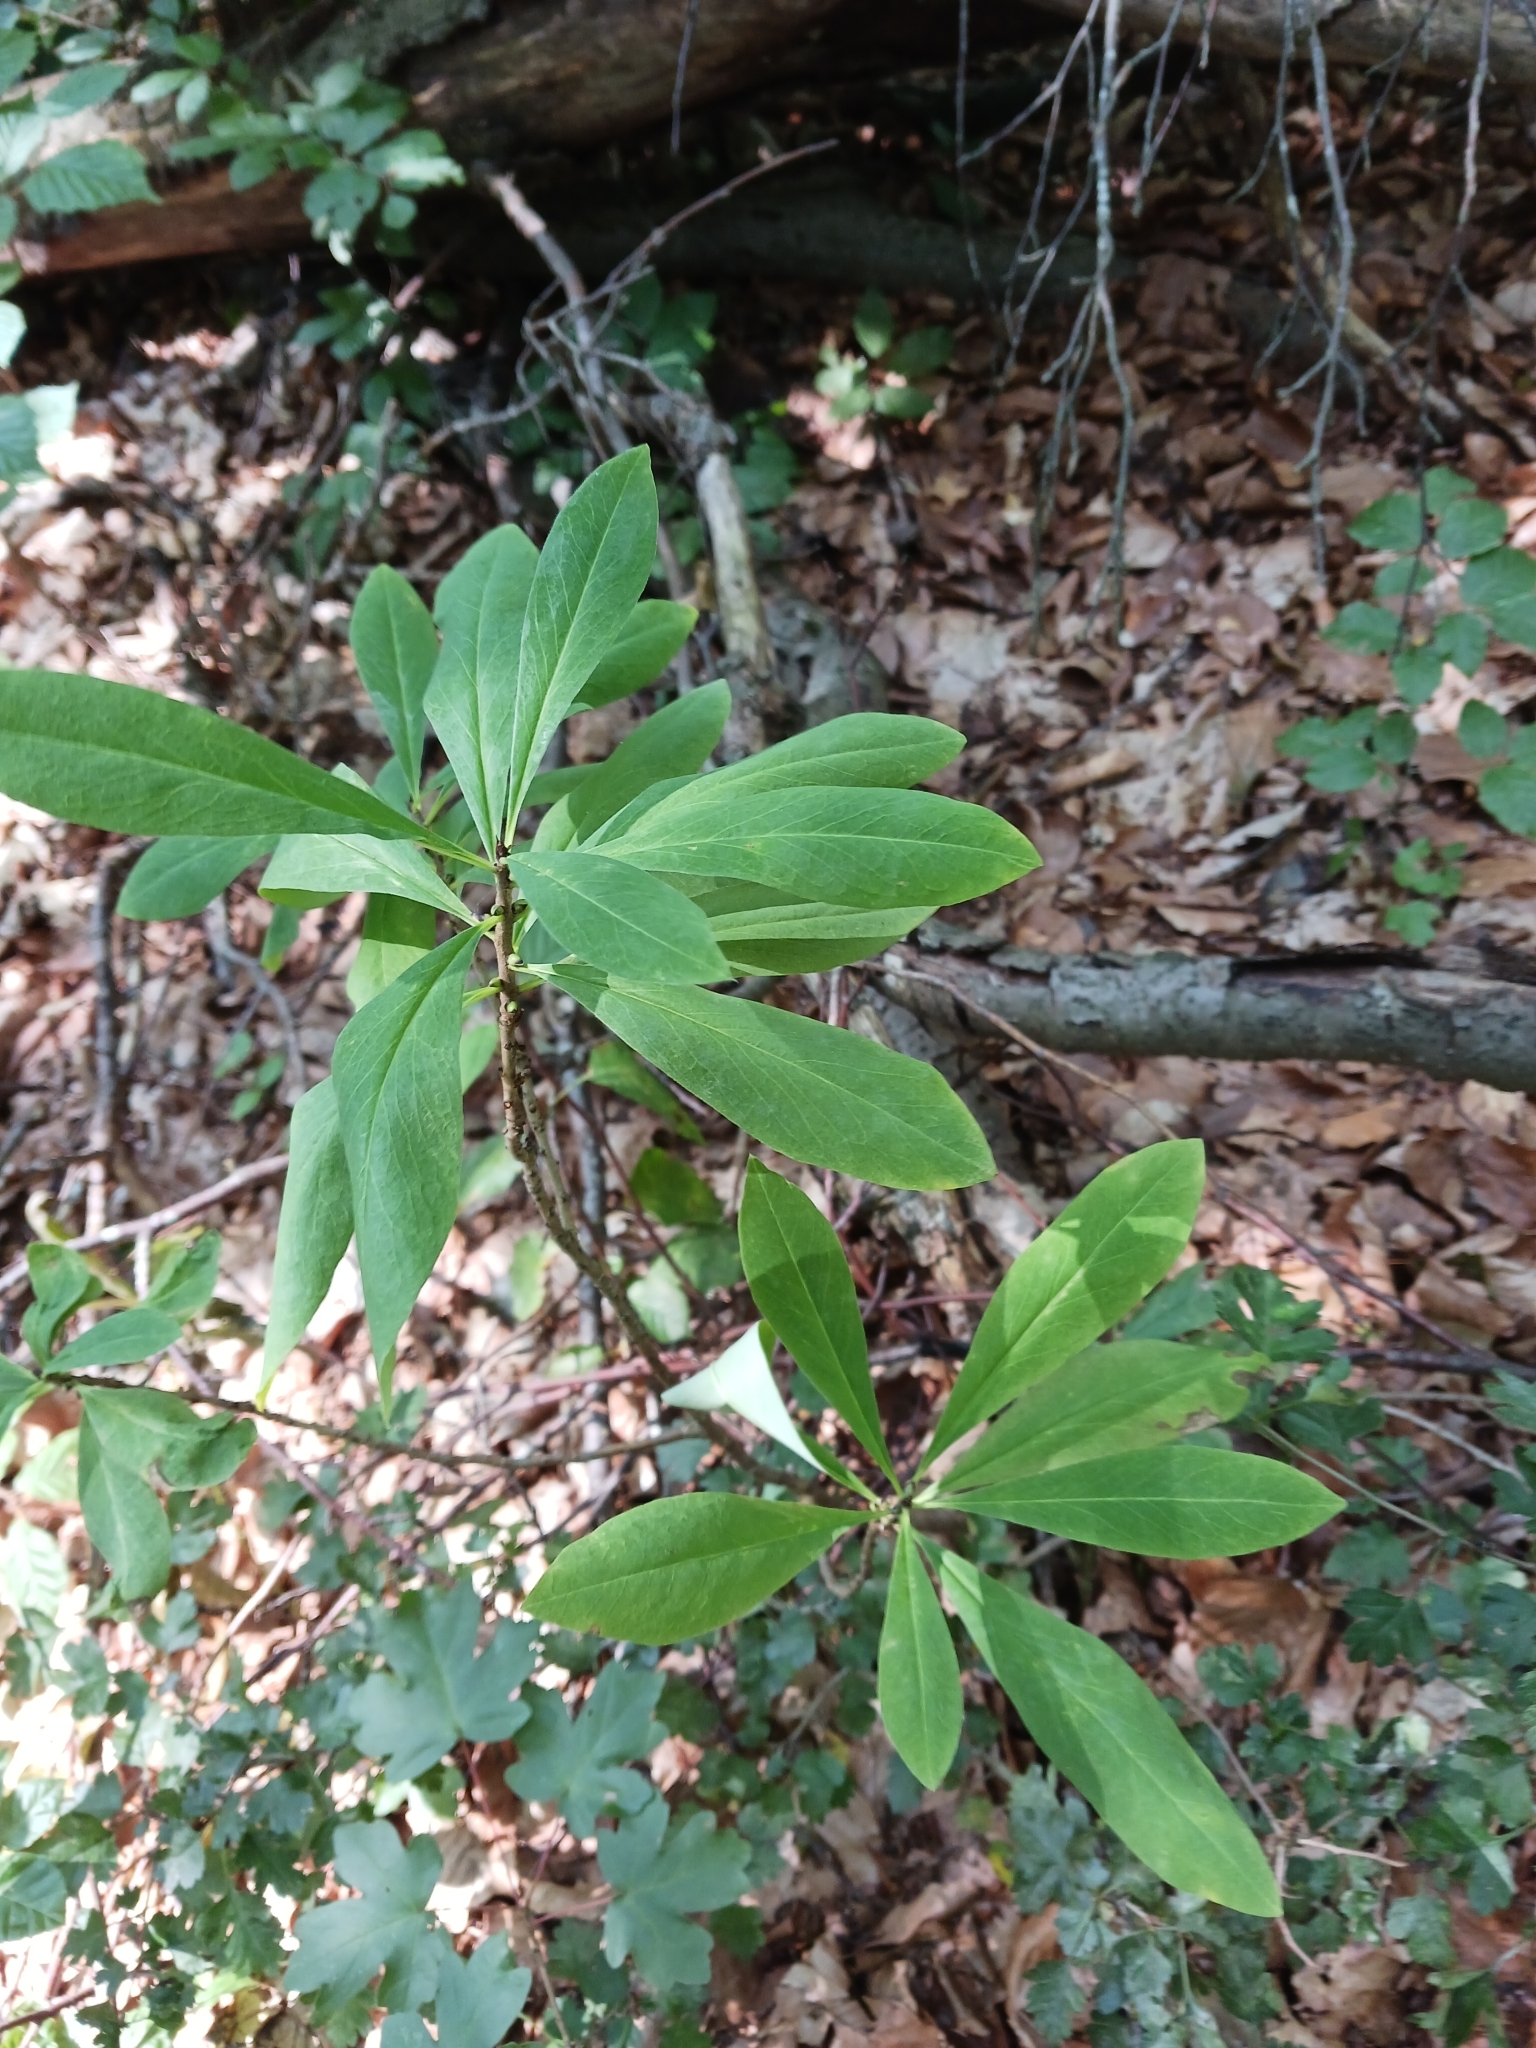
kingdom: Plantae
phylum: Tracheophyta
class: Magnoliopsida
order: Malvales
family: Thymelaeaceae
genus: Daphne
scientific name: Daphne mezereum
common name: Mezereon
